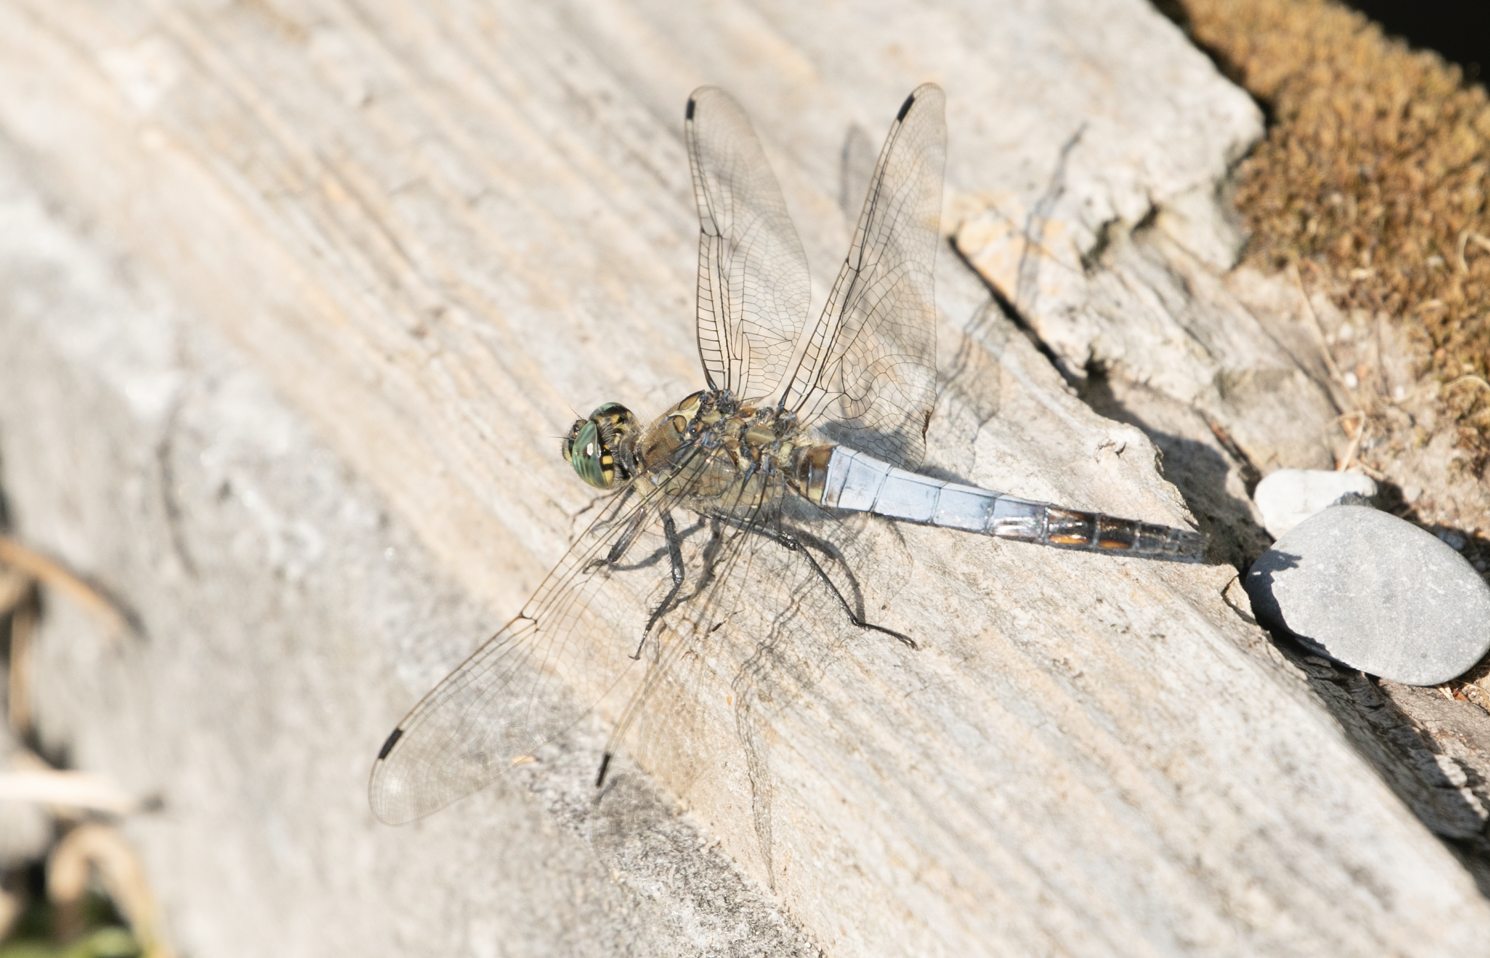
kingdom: Animalia
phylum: Arthropoda
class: Insecta
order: Odonata
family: Libellulidae
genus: Orthetrum
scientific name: Orthetrum cancellatum
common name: Black-tailed skimmer
